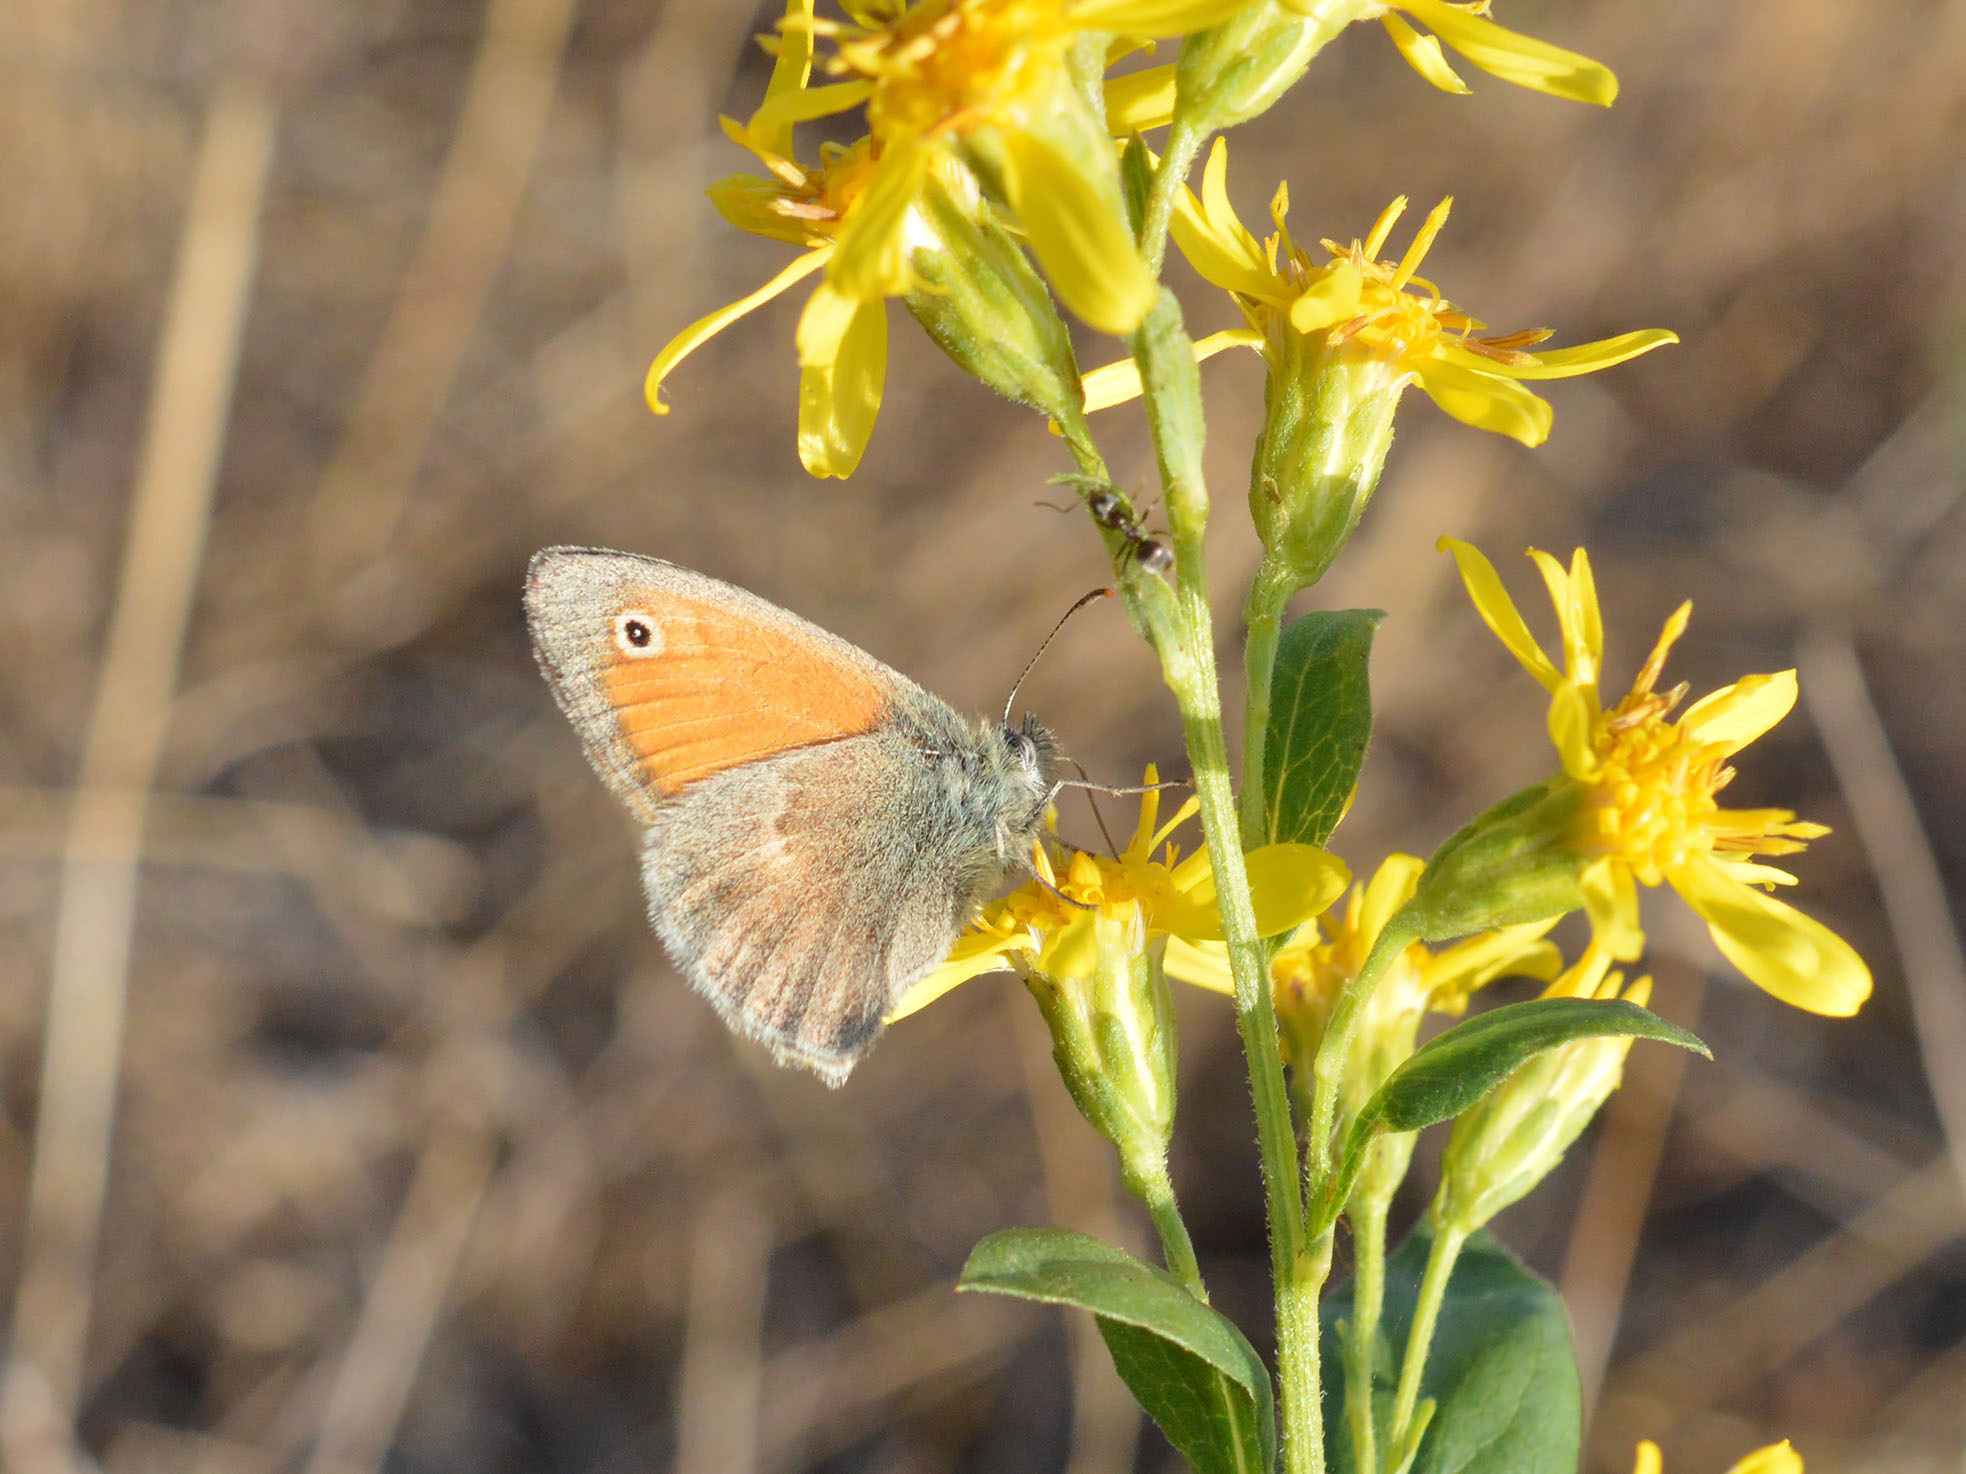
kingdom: Animalia
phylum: Arthropoda
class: Insecta
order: Lepidoptera
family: Nymphalidae
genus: Coenonympha
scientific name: Coenonympha pamphilus
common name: Small heath
